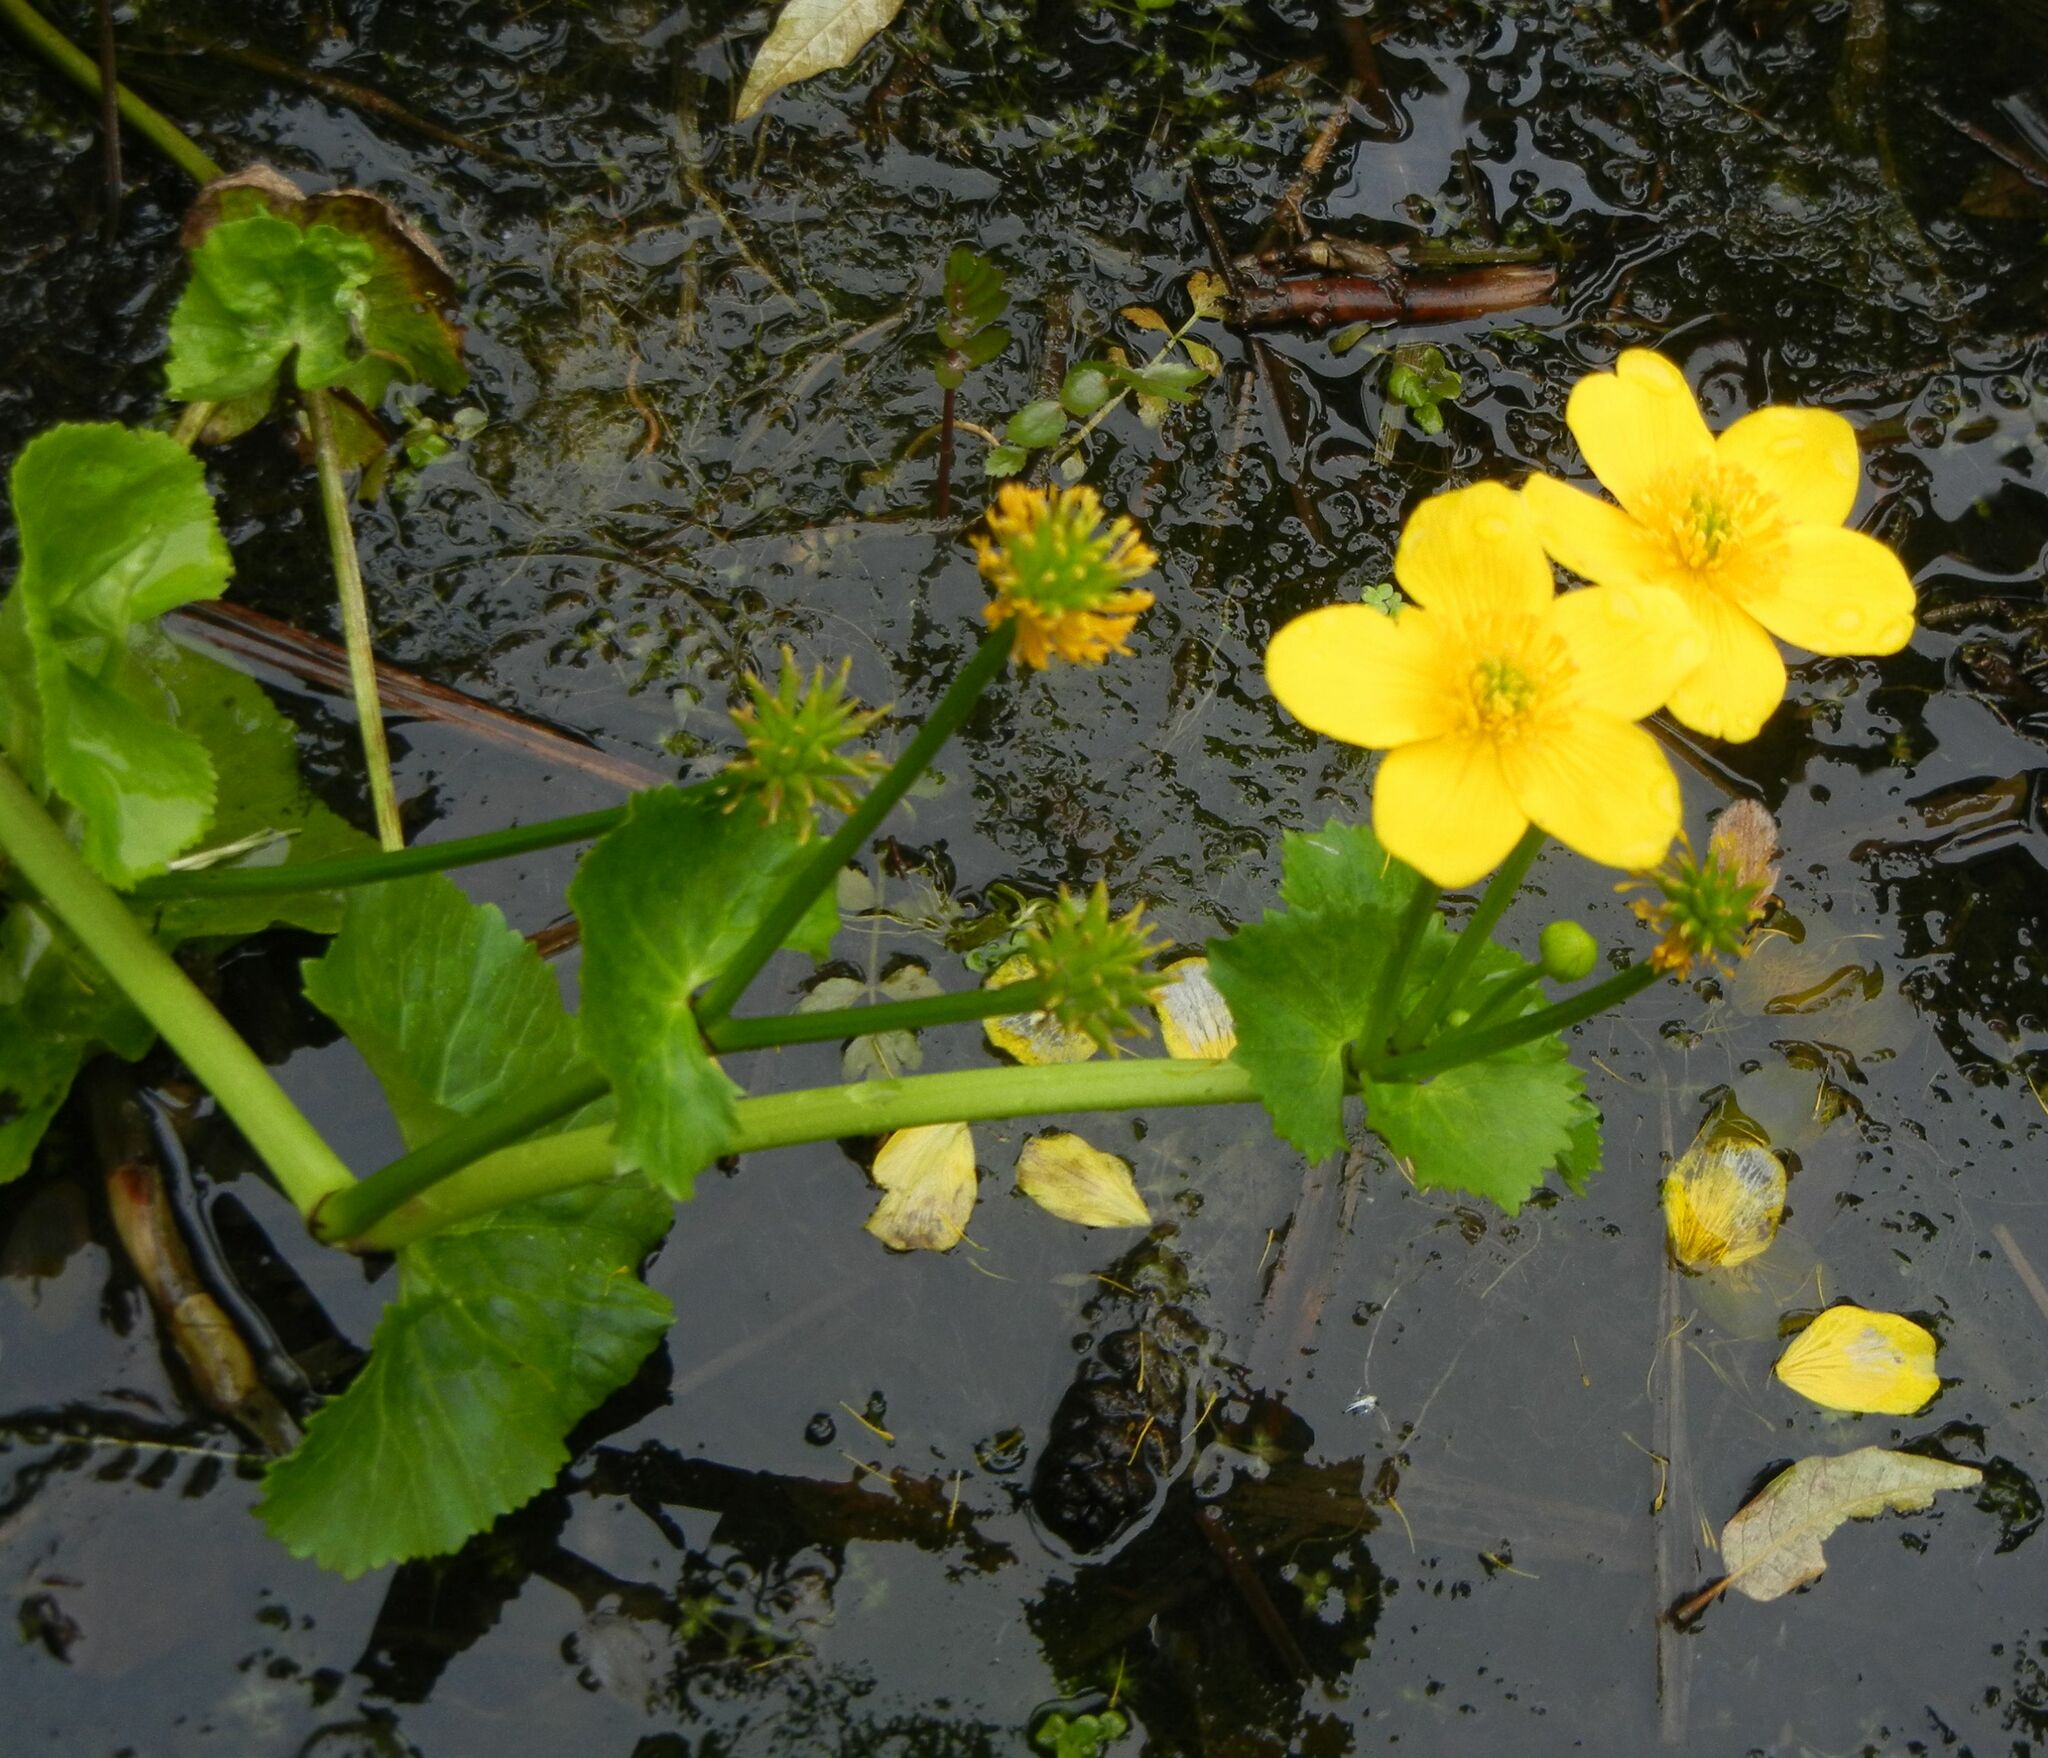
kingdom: Plantae
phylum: Tracheophyta
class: Magnoliopsida
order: Ranunculales
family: Ranunculaceae
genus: Caltha
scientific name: Caltha palustris
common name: Marsh marigold
